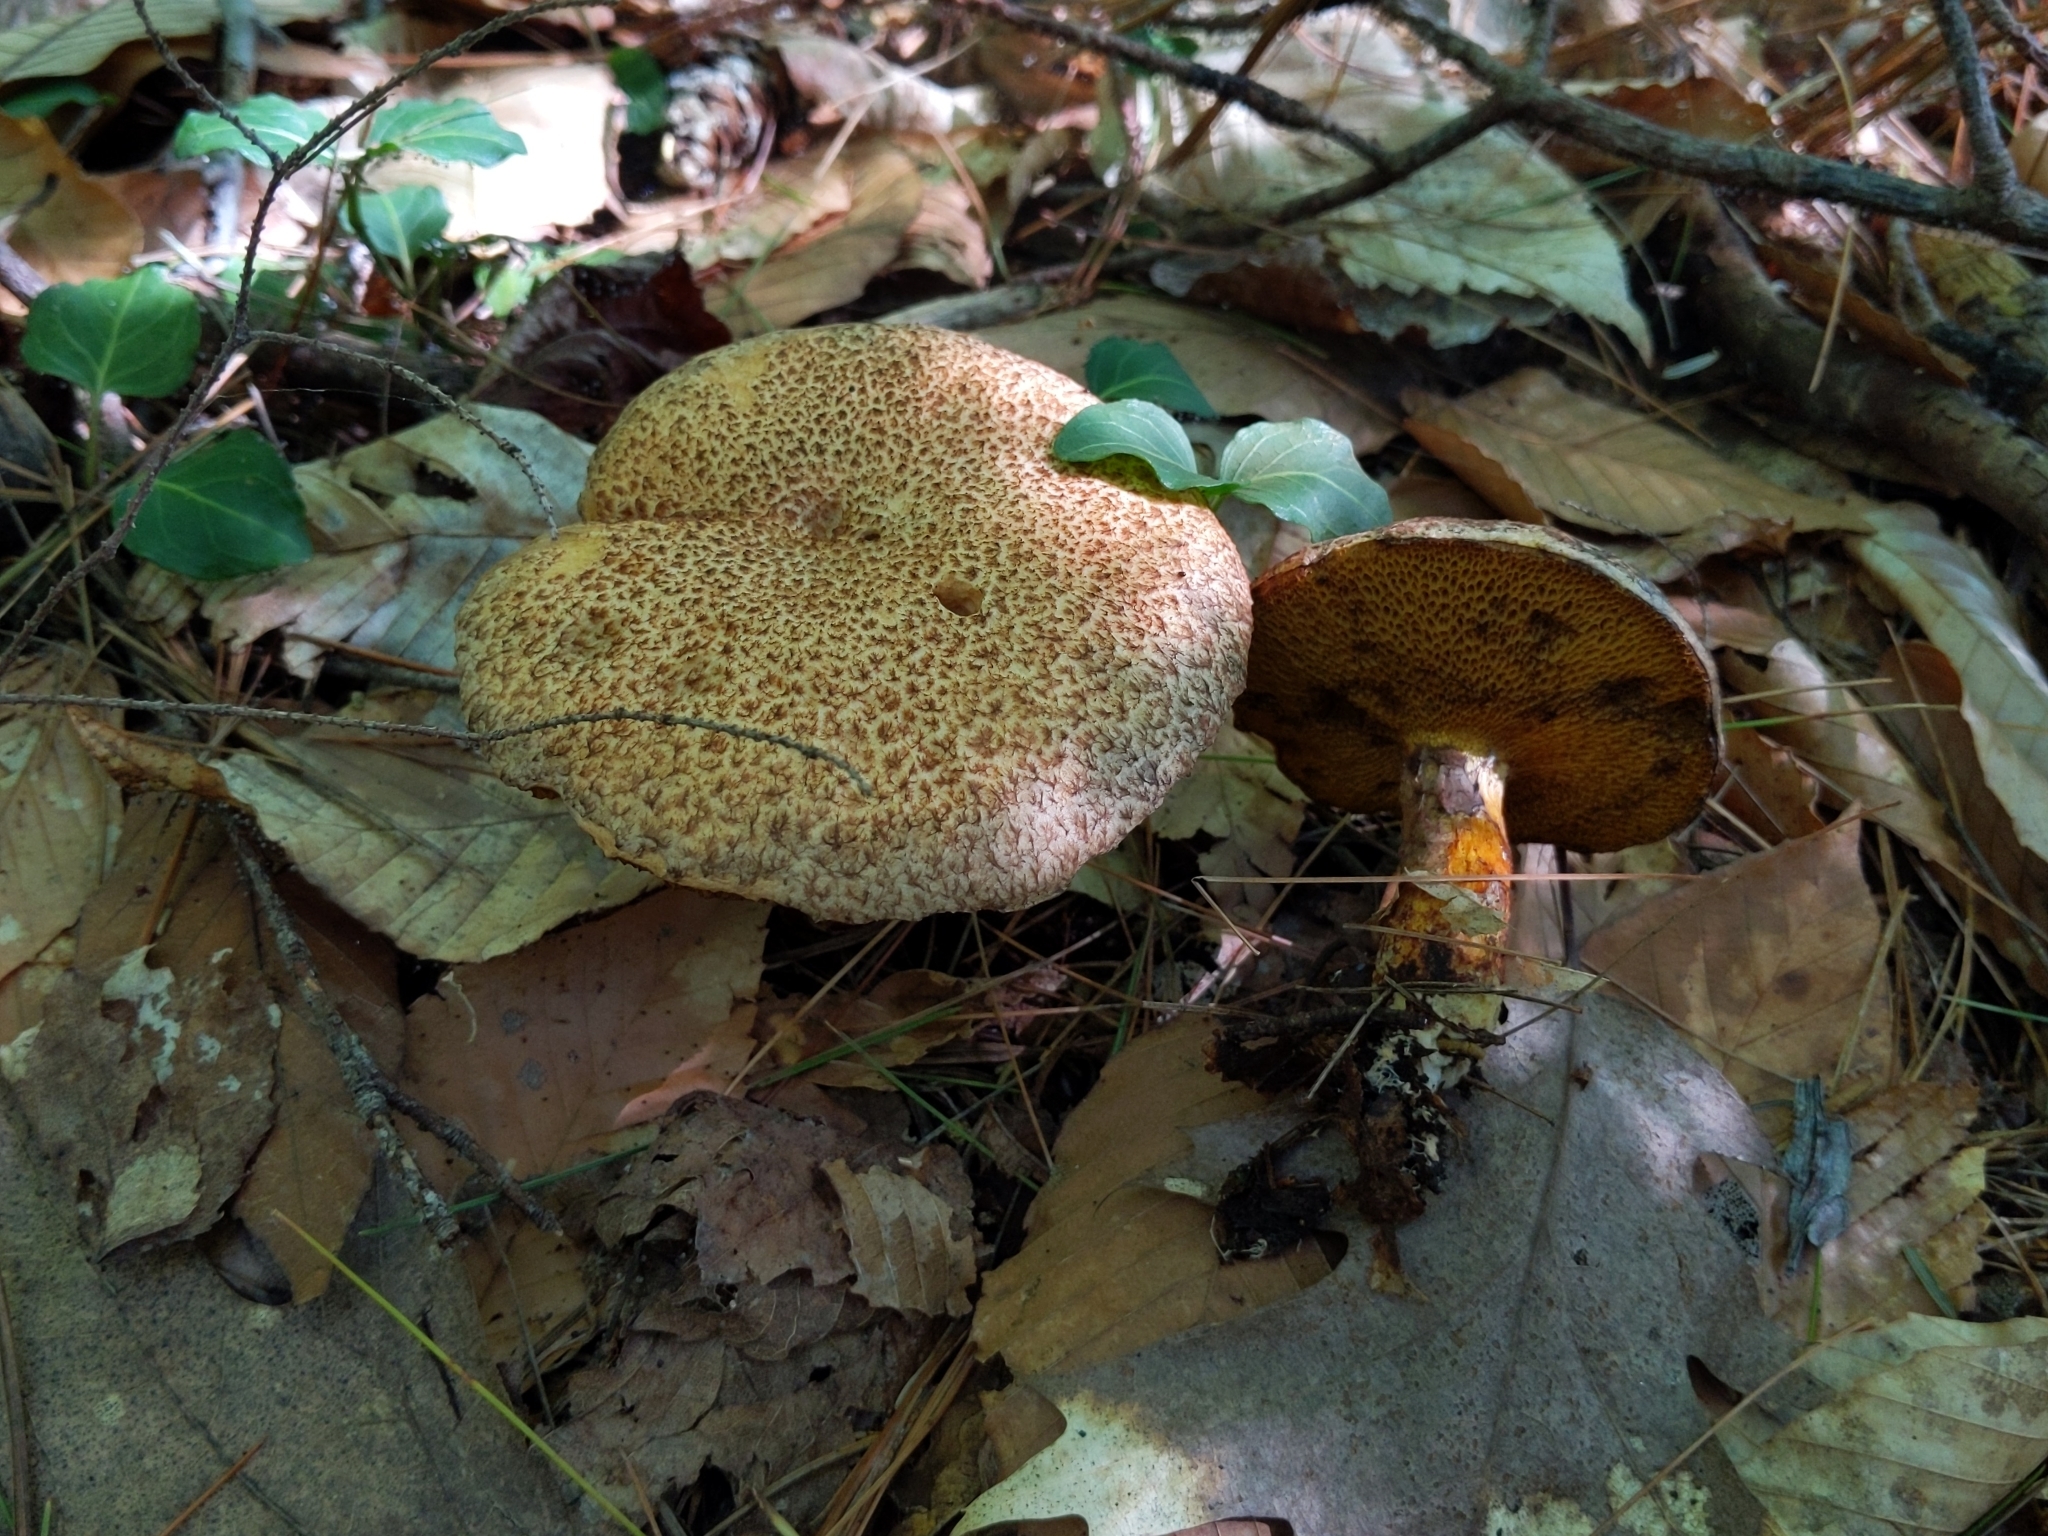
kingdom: Fungi
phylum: Basidiomycota
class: Agaricomycetes
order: Boletales
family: Suillaceae
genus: Suillus
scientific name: Suillus spraguei
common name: Painted suillus
